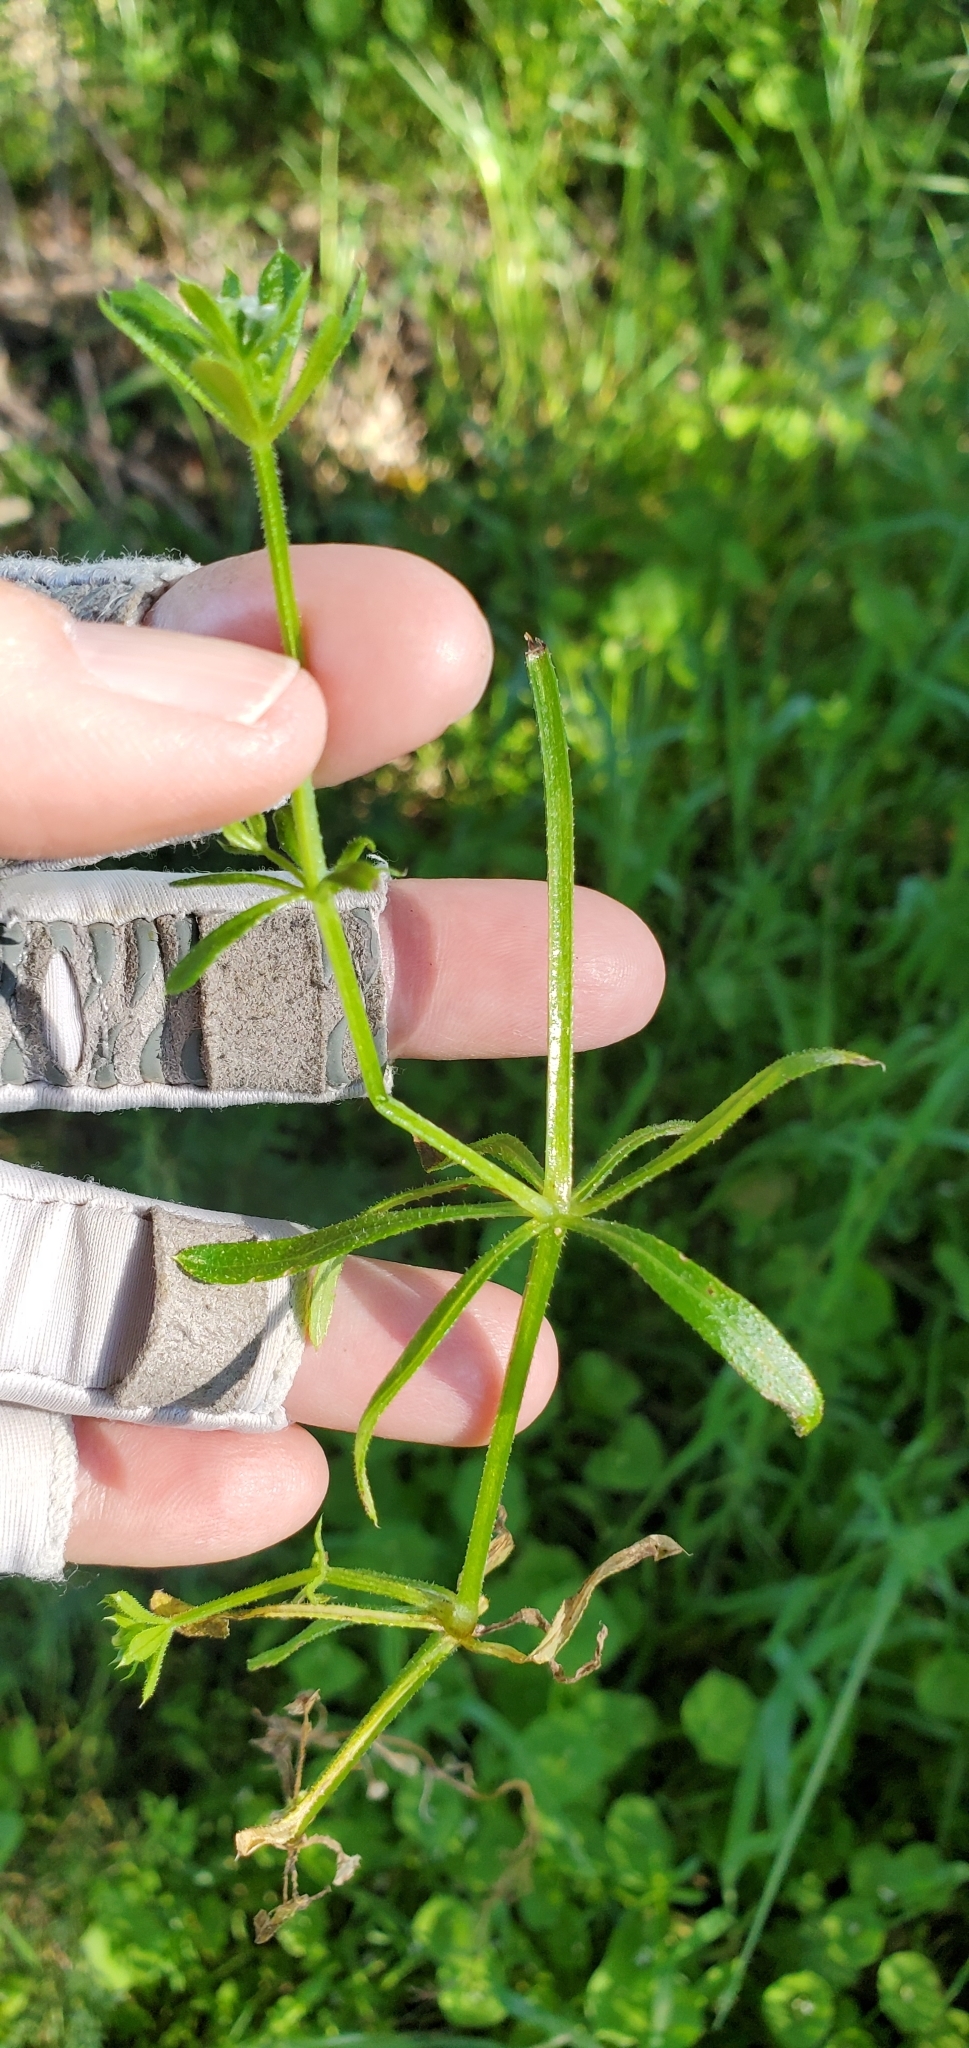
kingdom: Plantae
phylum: Tracheophyta
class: Magnoliopsida
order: Gentianales
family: Rubiaceae
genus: Galium
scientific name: Galium aparine
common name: Cleavers
